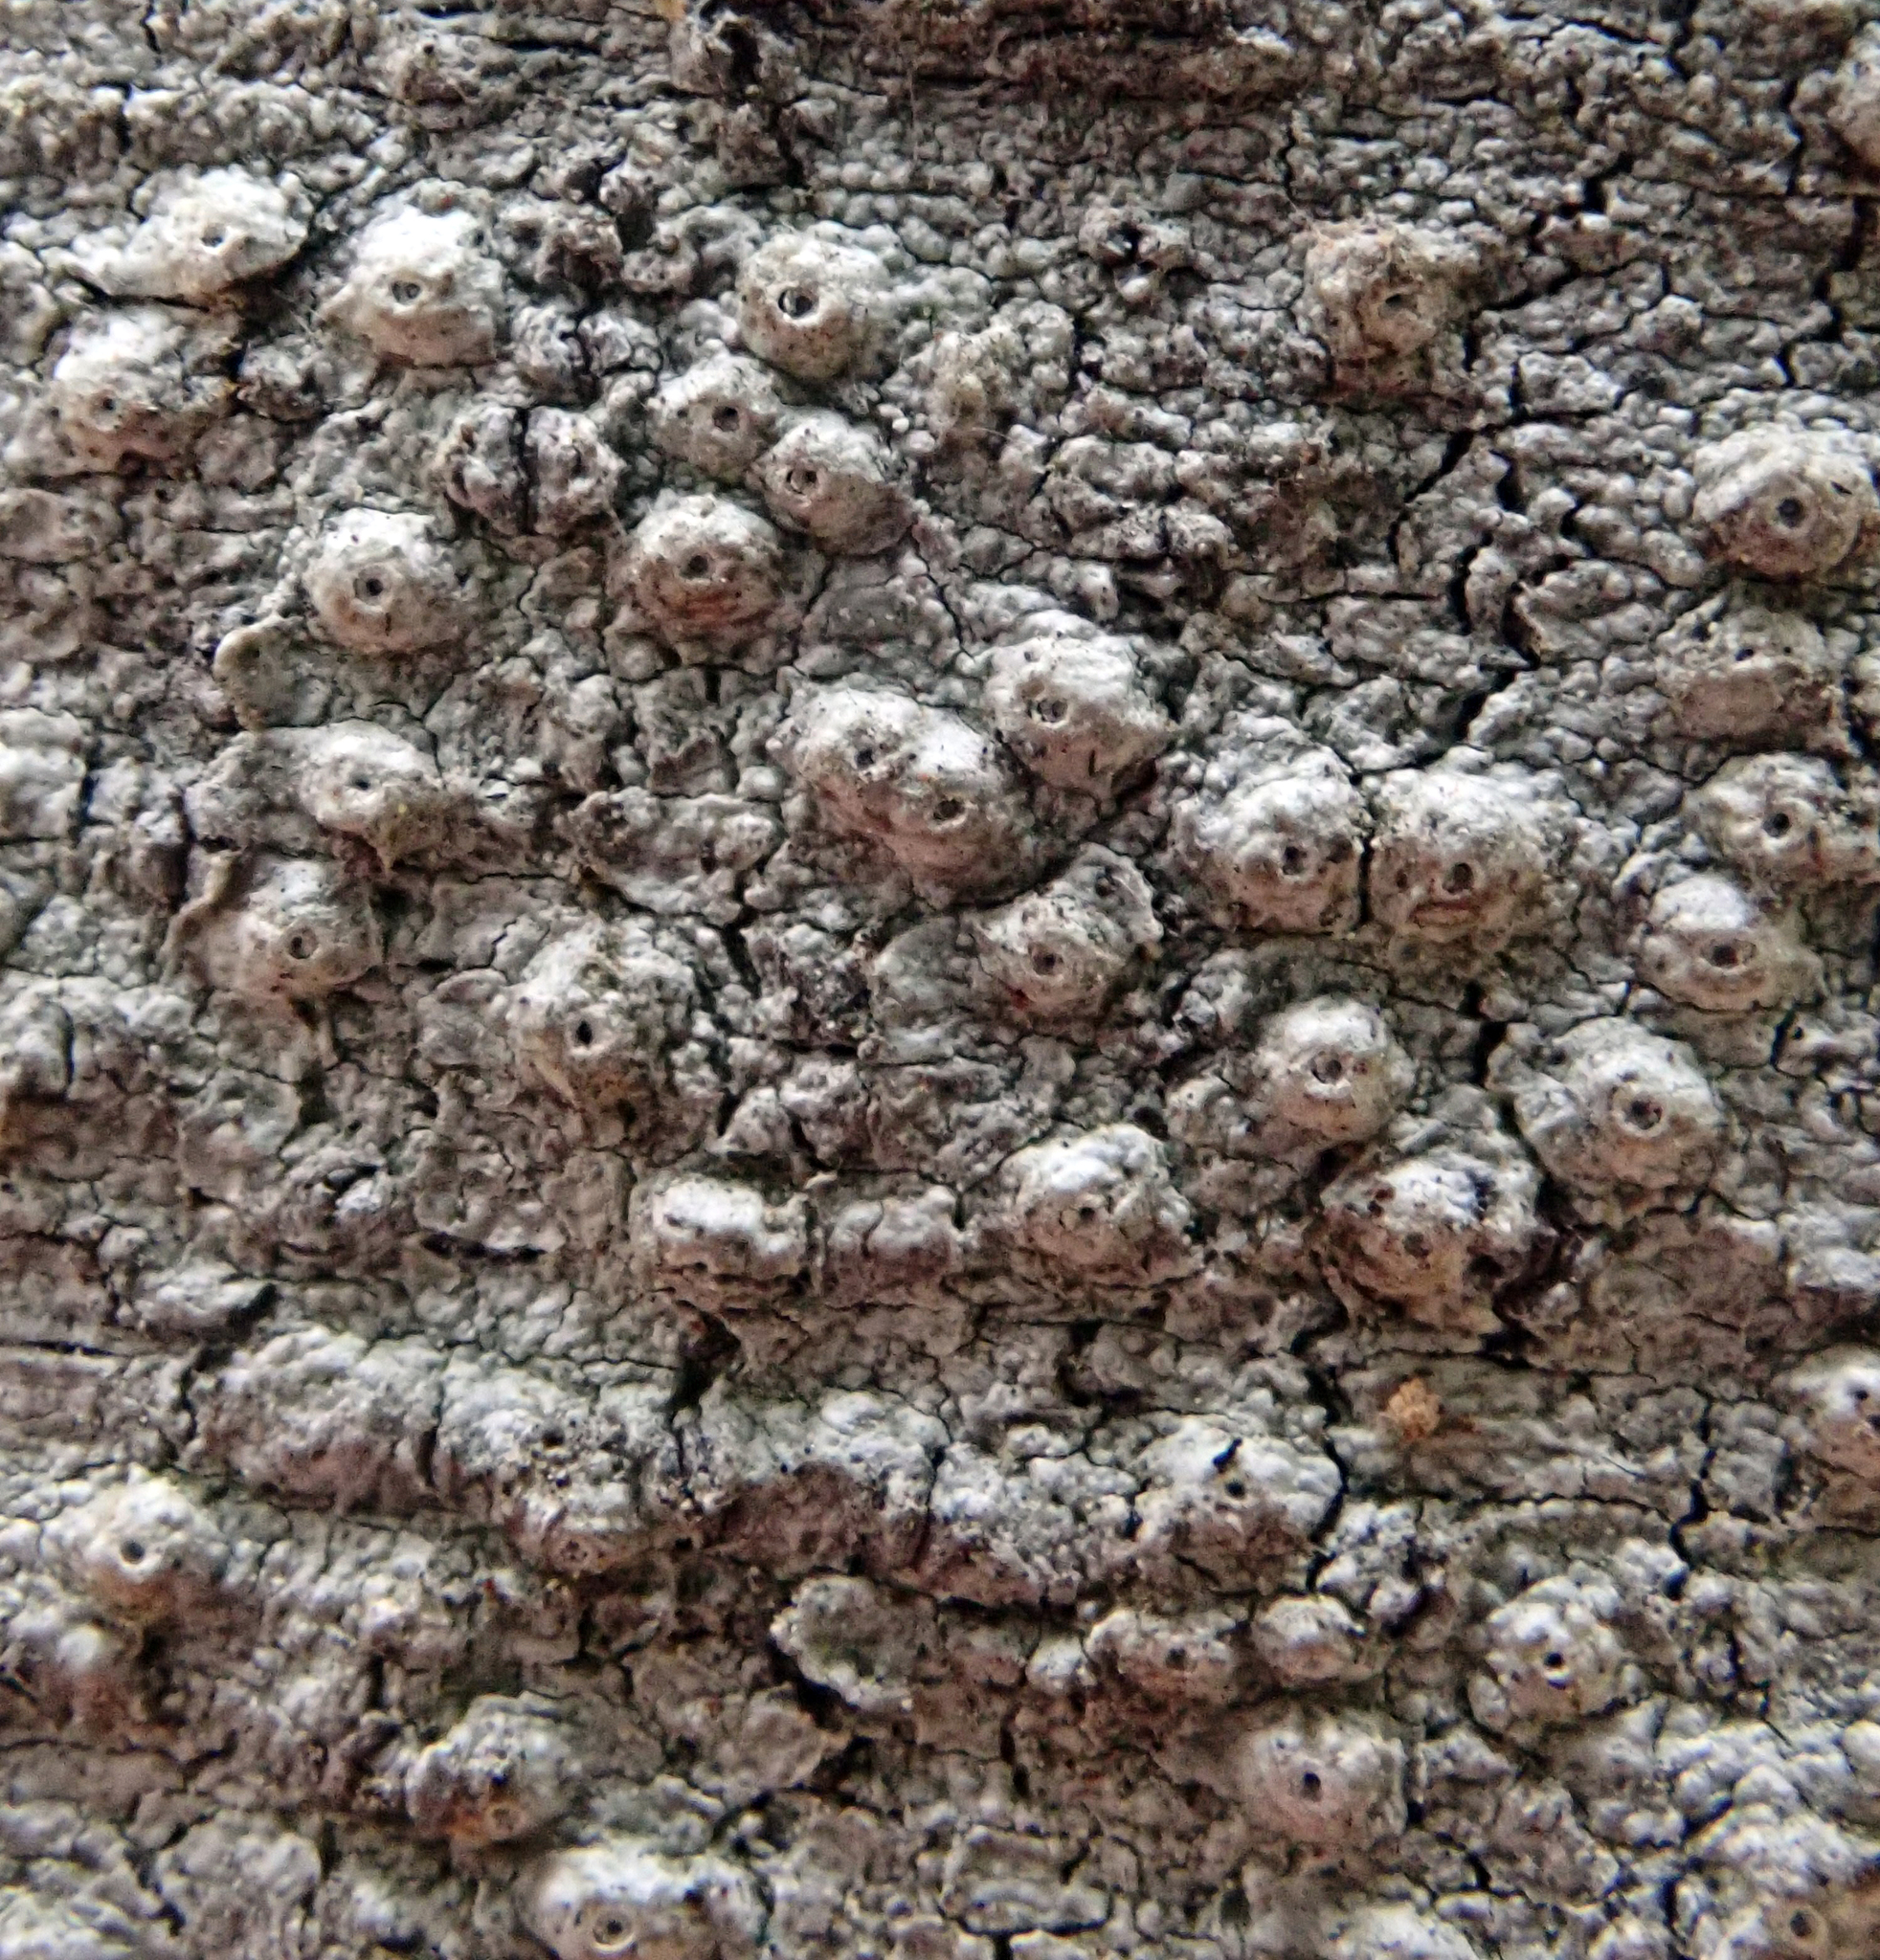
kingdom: Fungi
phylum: Ascomycota
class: Lecanoromycetes
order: Ostropales
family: Graphidaceae
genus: Ocellularia
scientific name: Ocellularia
